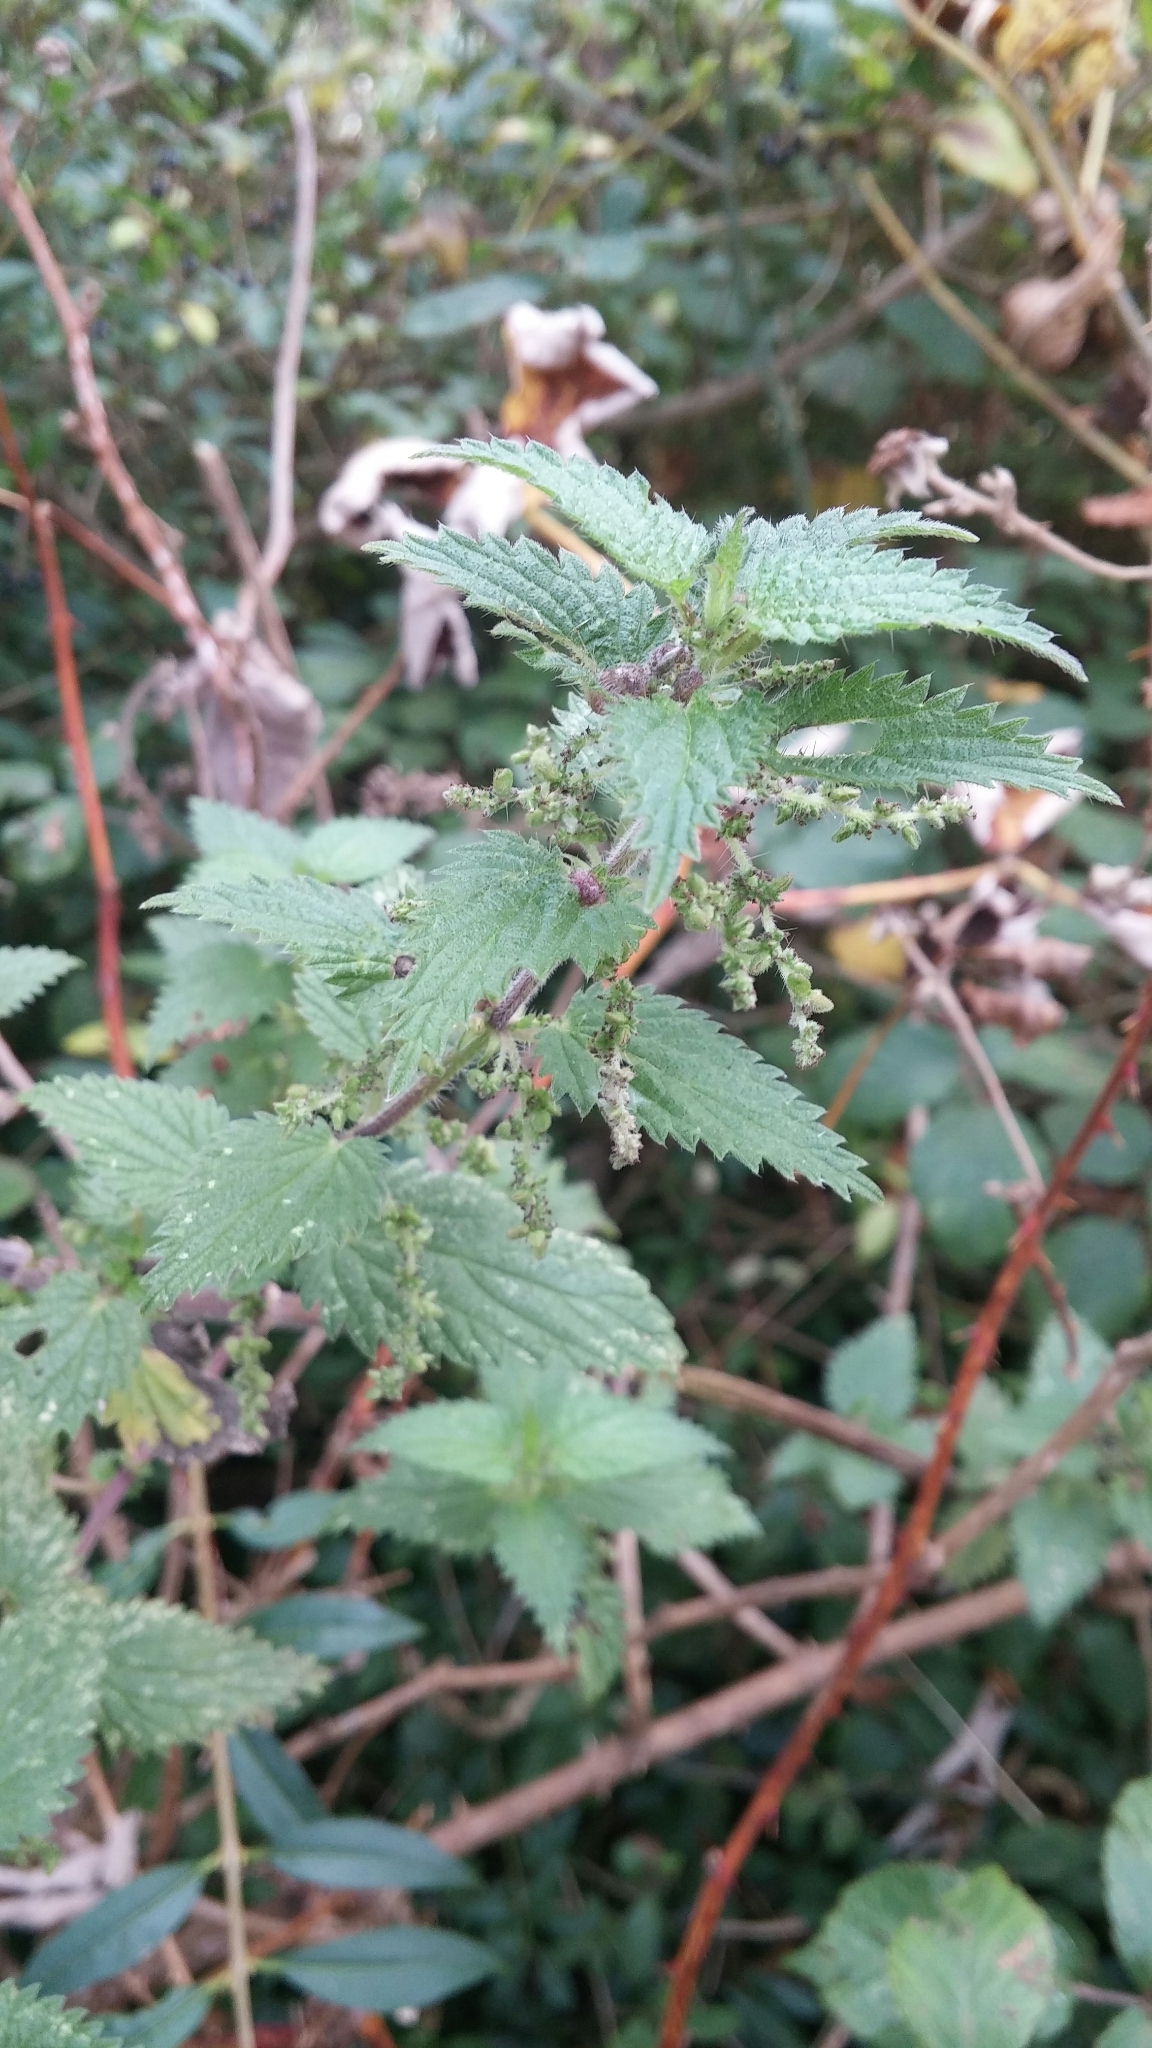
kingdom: Plantae
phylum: Tracheophyta
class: Magnoliopsida
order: Rosales
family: Urticaceae
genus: Urtica
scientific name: Urtica dioica
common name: Common nettle
